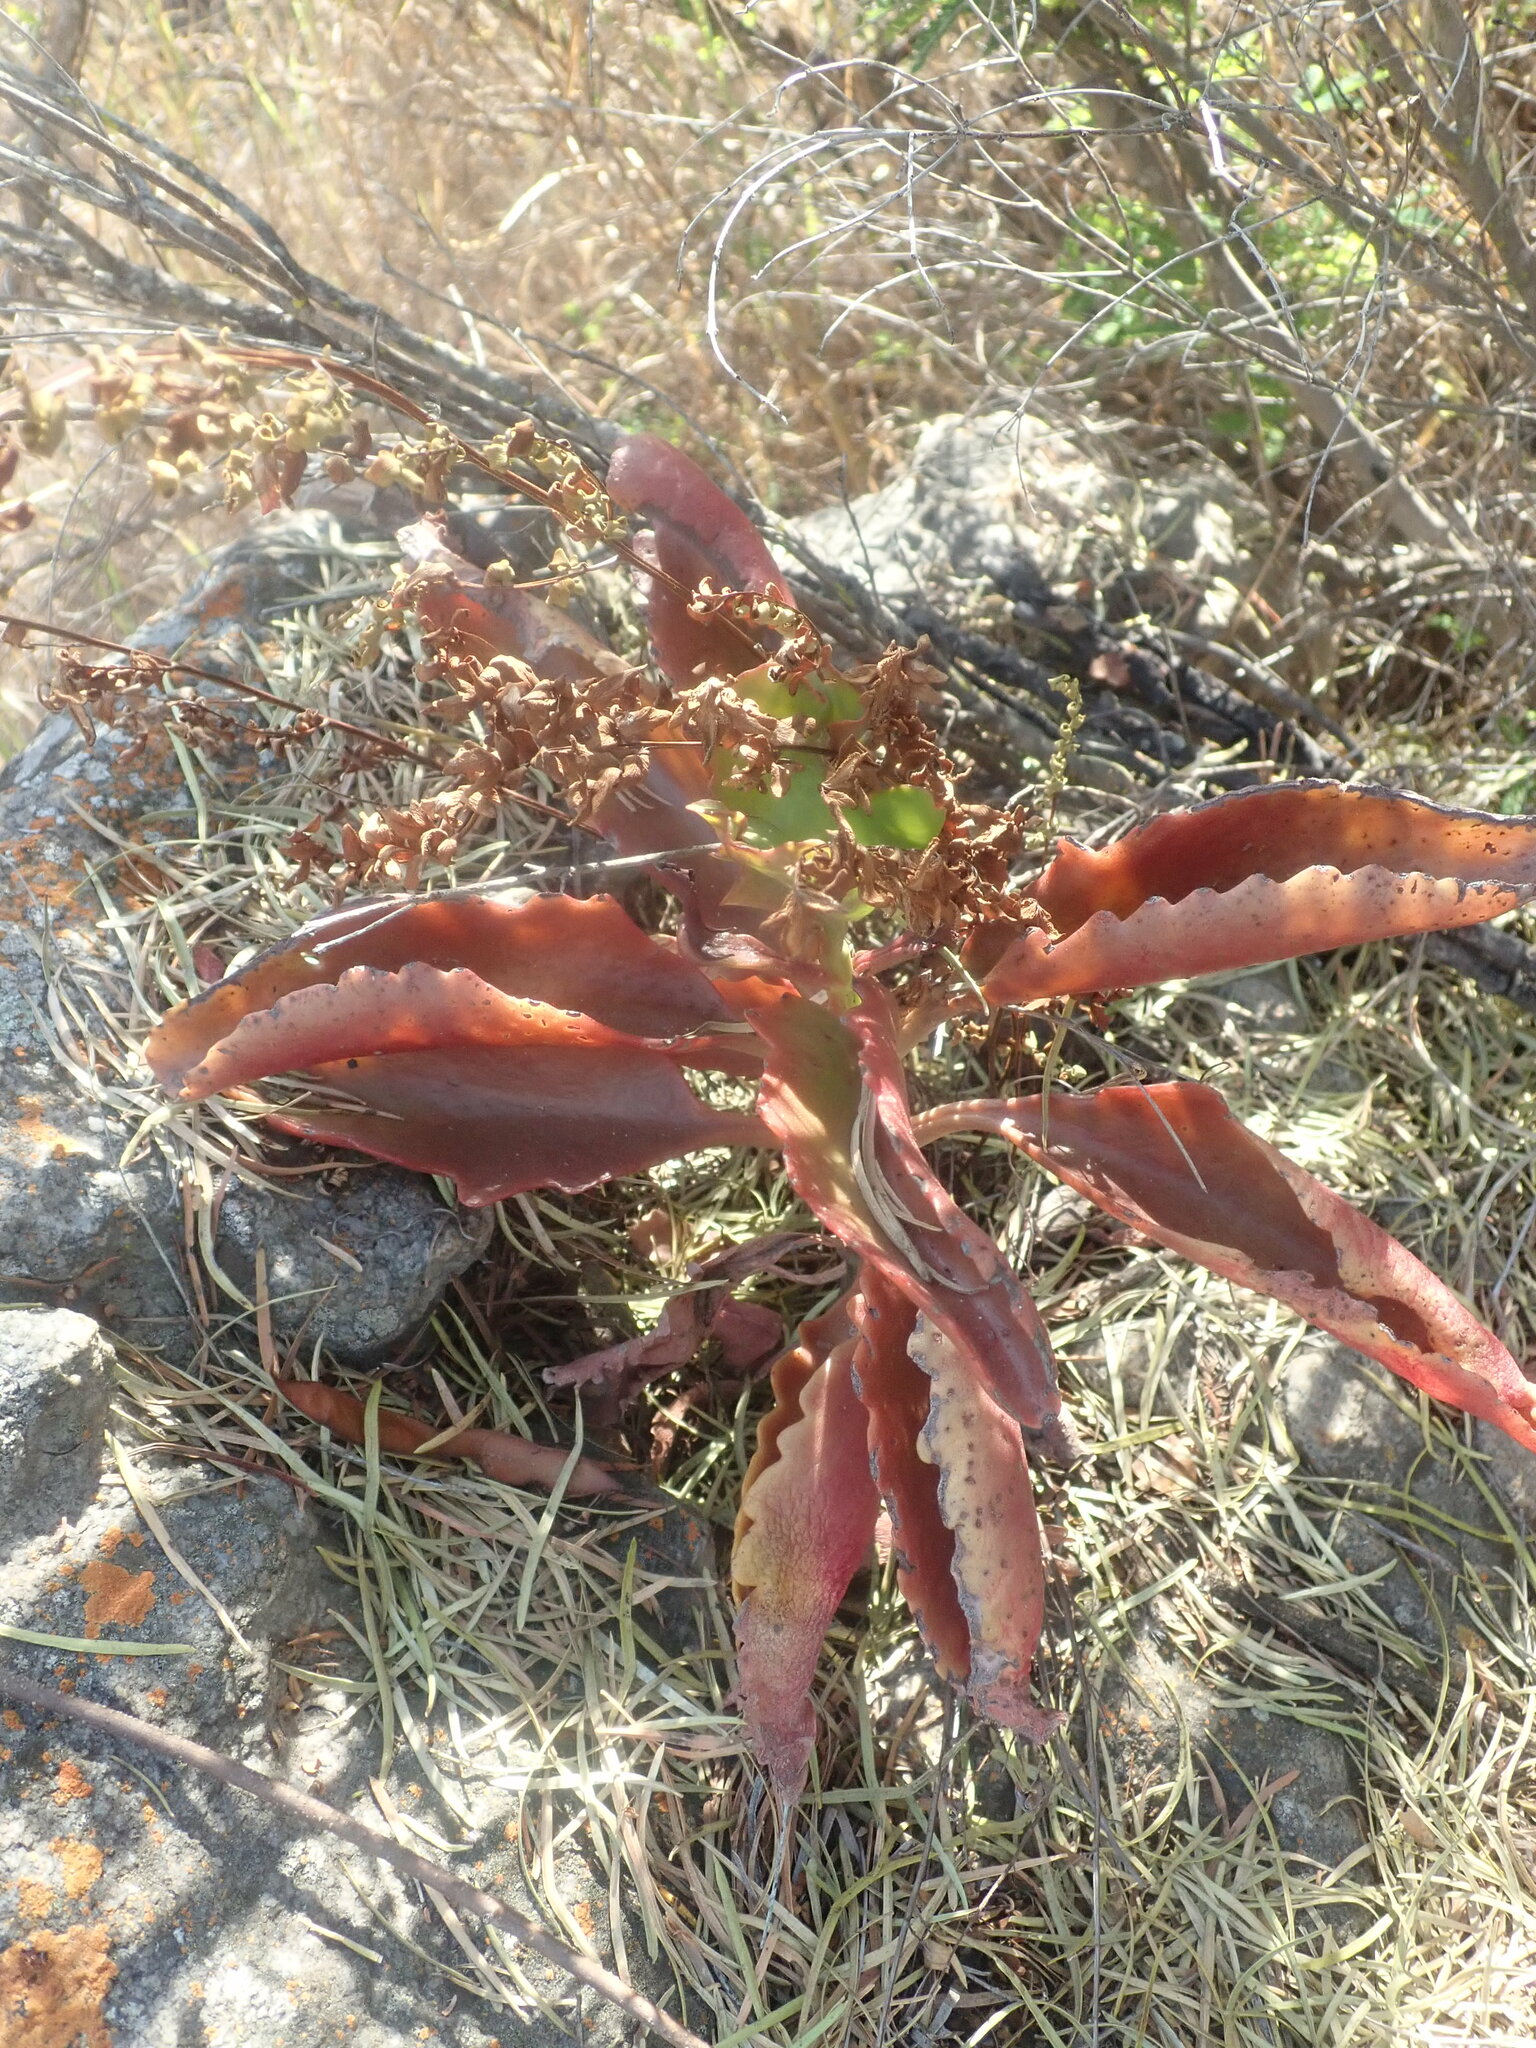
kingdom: Plantae
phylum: Tracheophyta
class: Magnoliopsida
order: Saxifragales
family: Crassulaceae
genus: Kalanchoe
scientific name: Kalanchoe sexangularis
